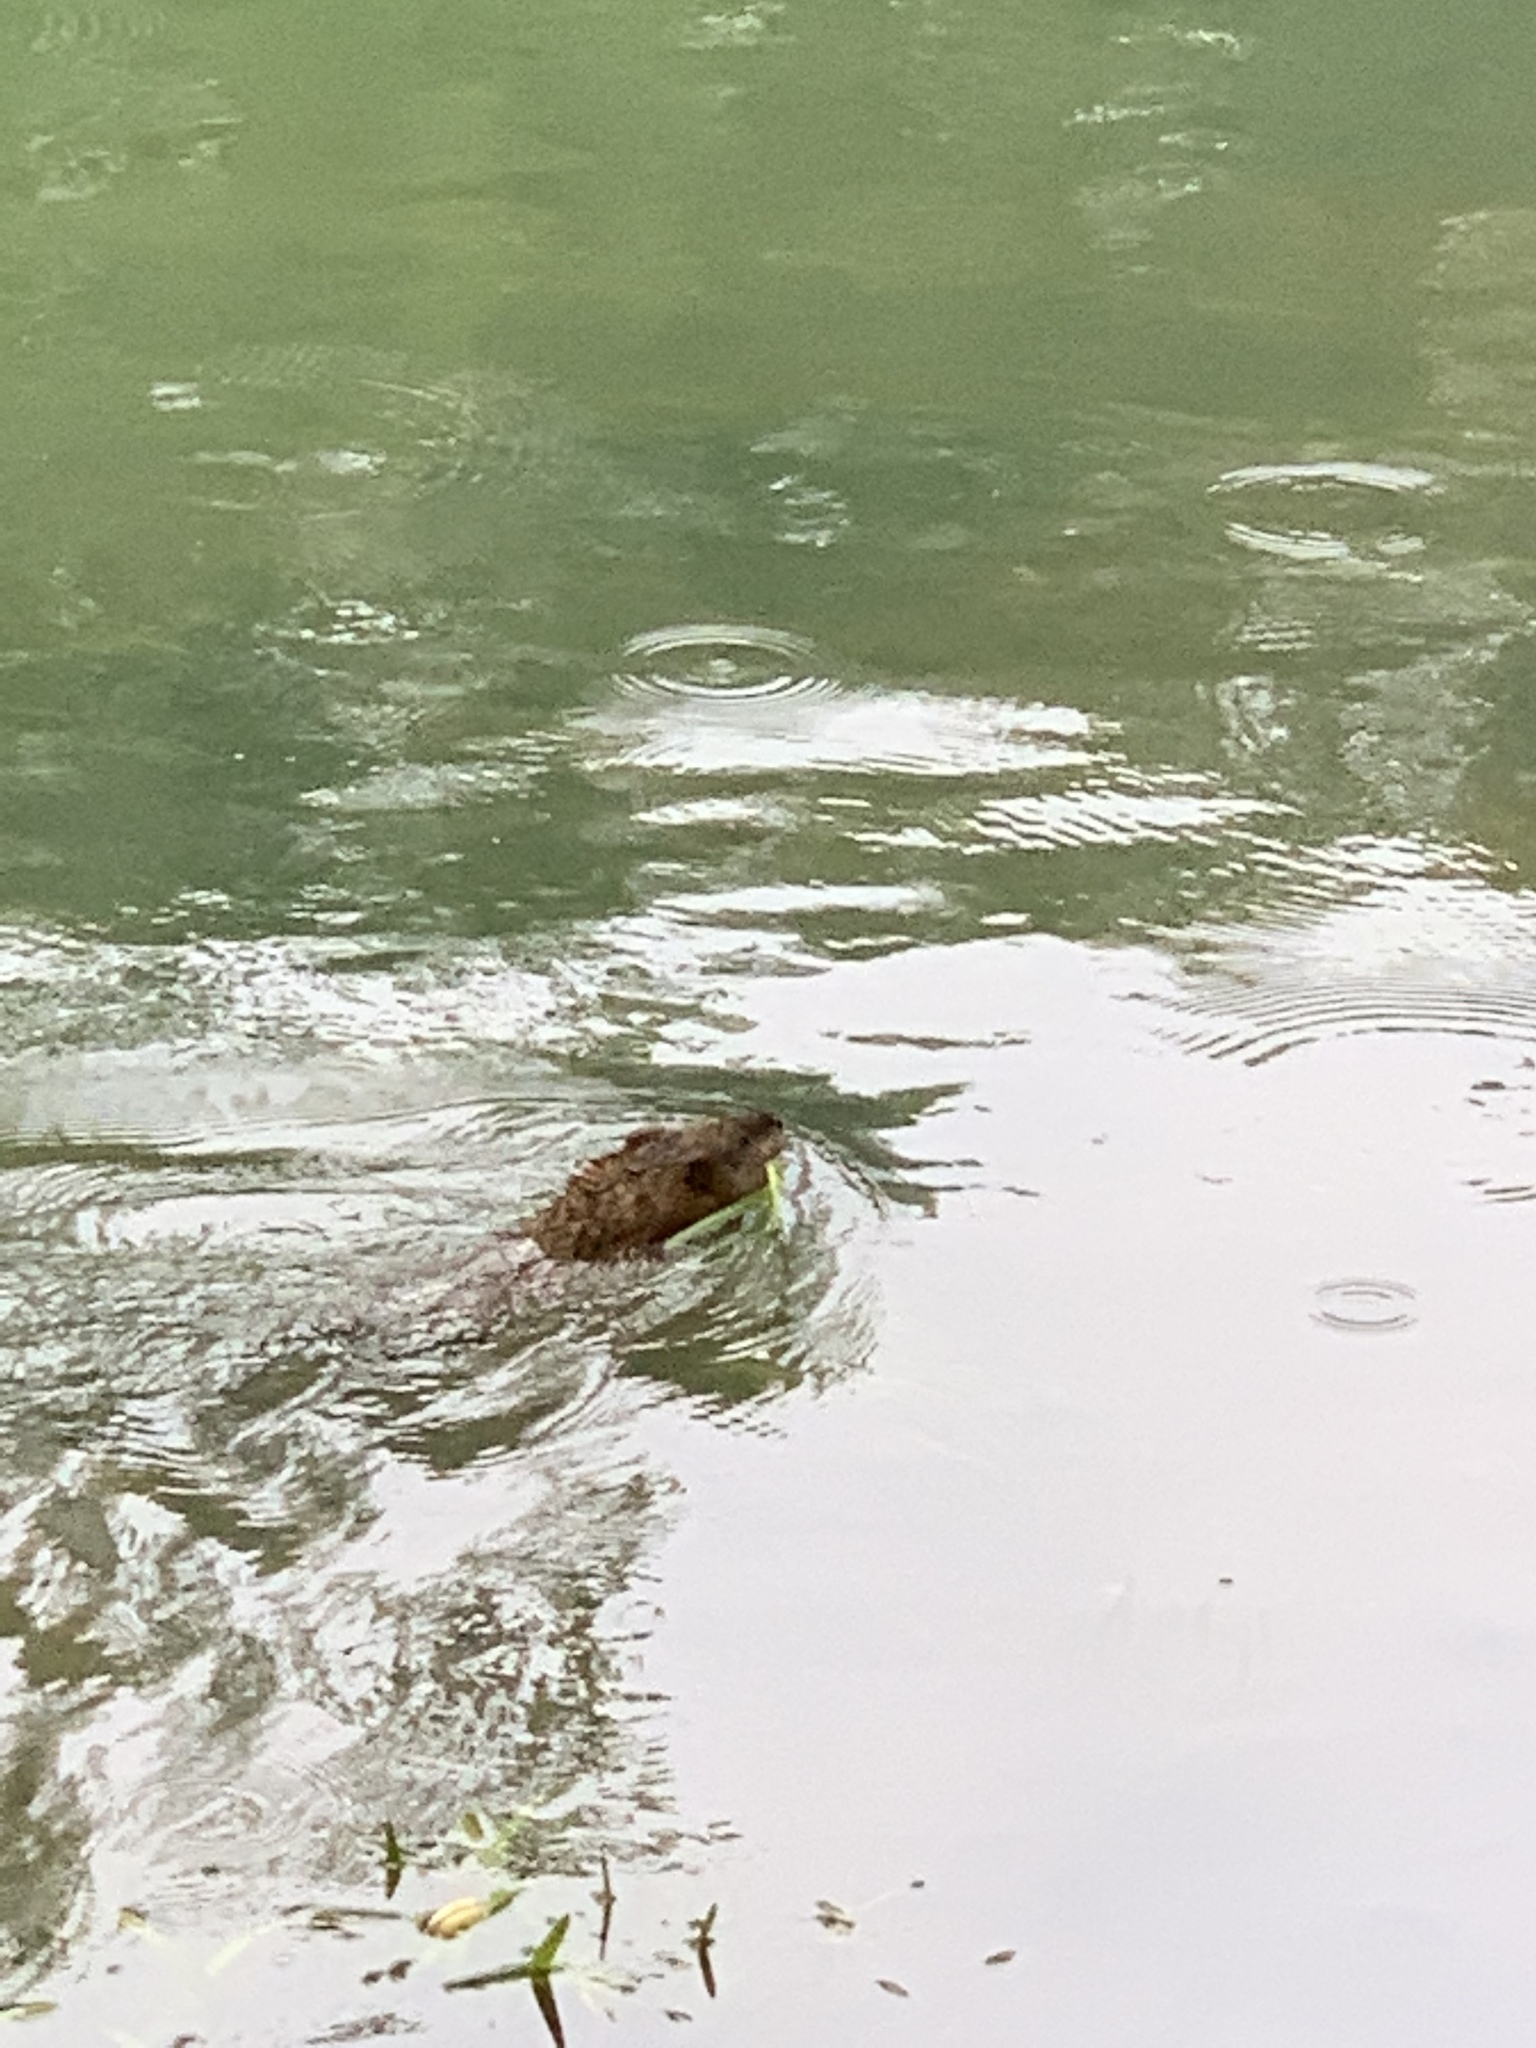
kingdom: Animalia
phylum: Chordata
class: Mammalia
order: Rodentia
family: Cricetidae
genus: Ondatra
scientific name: Ondatra zibethicus
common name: Muskrat
